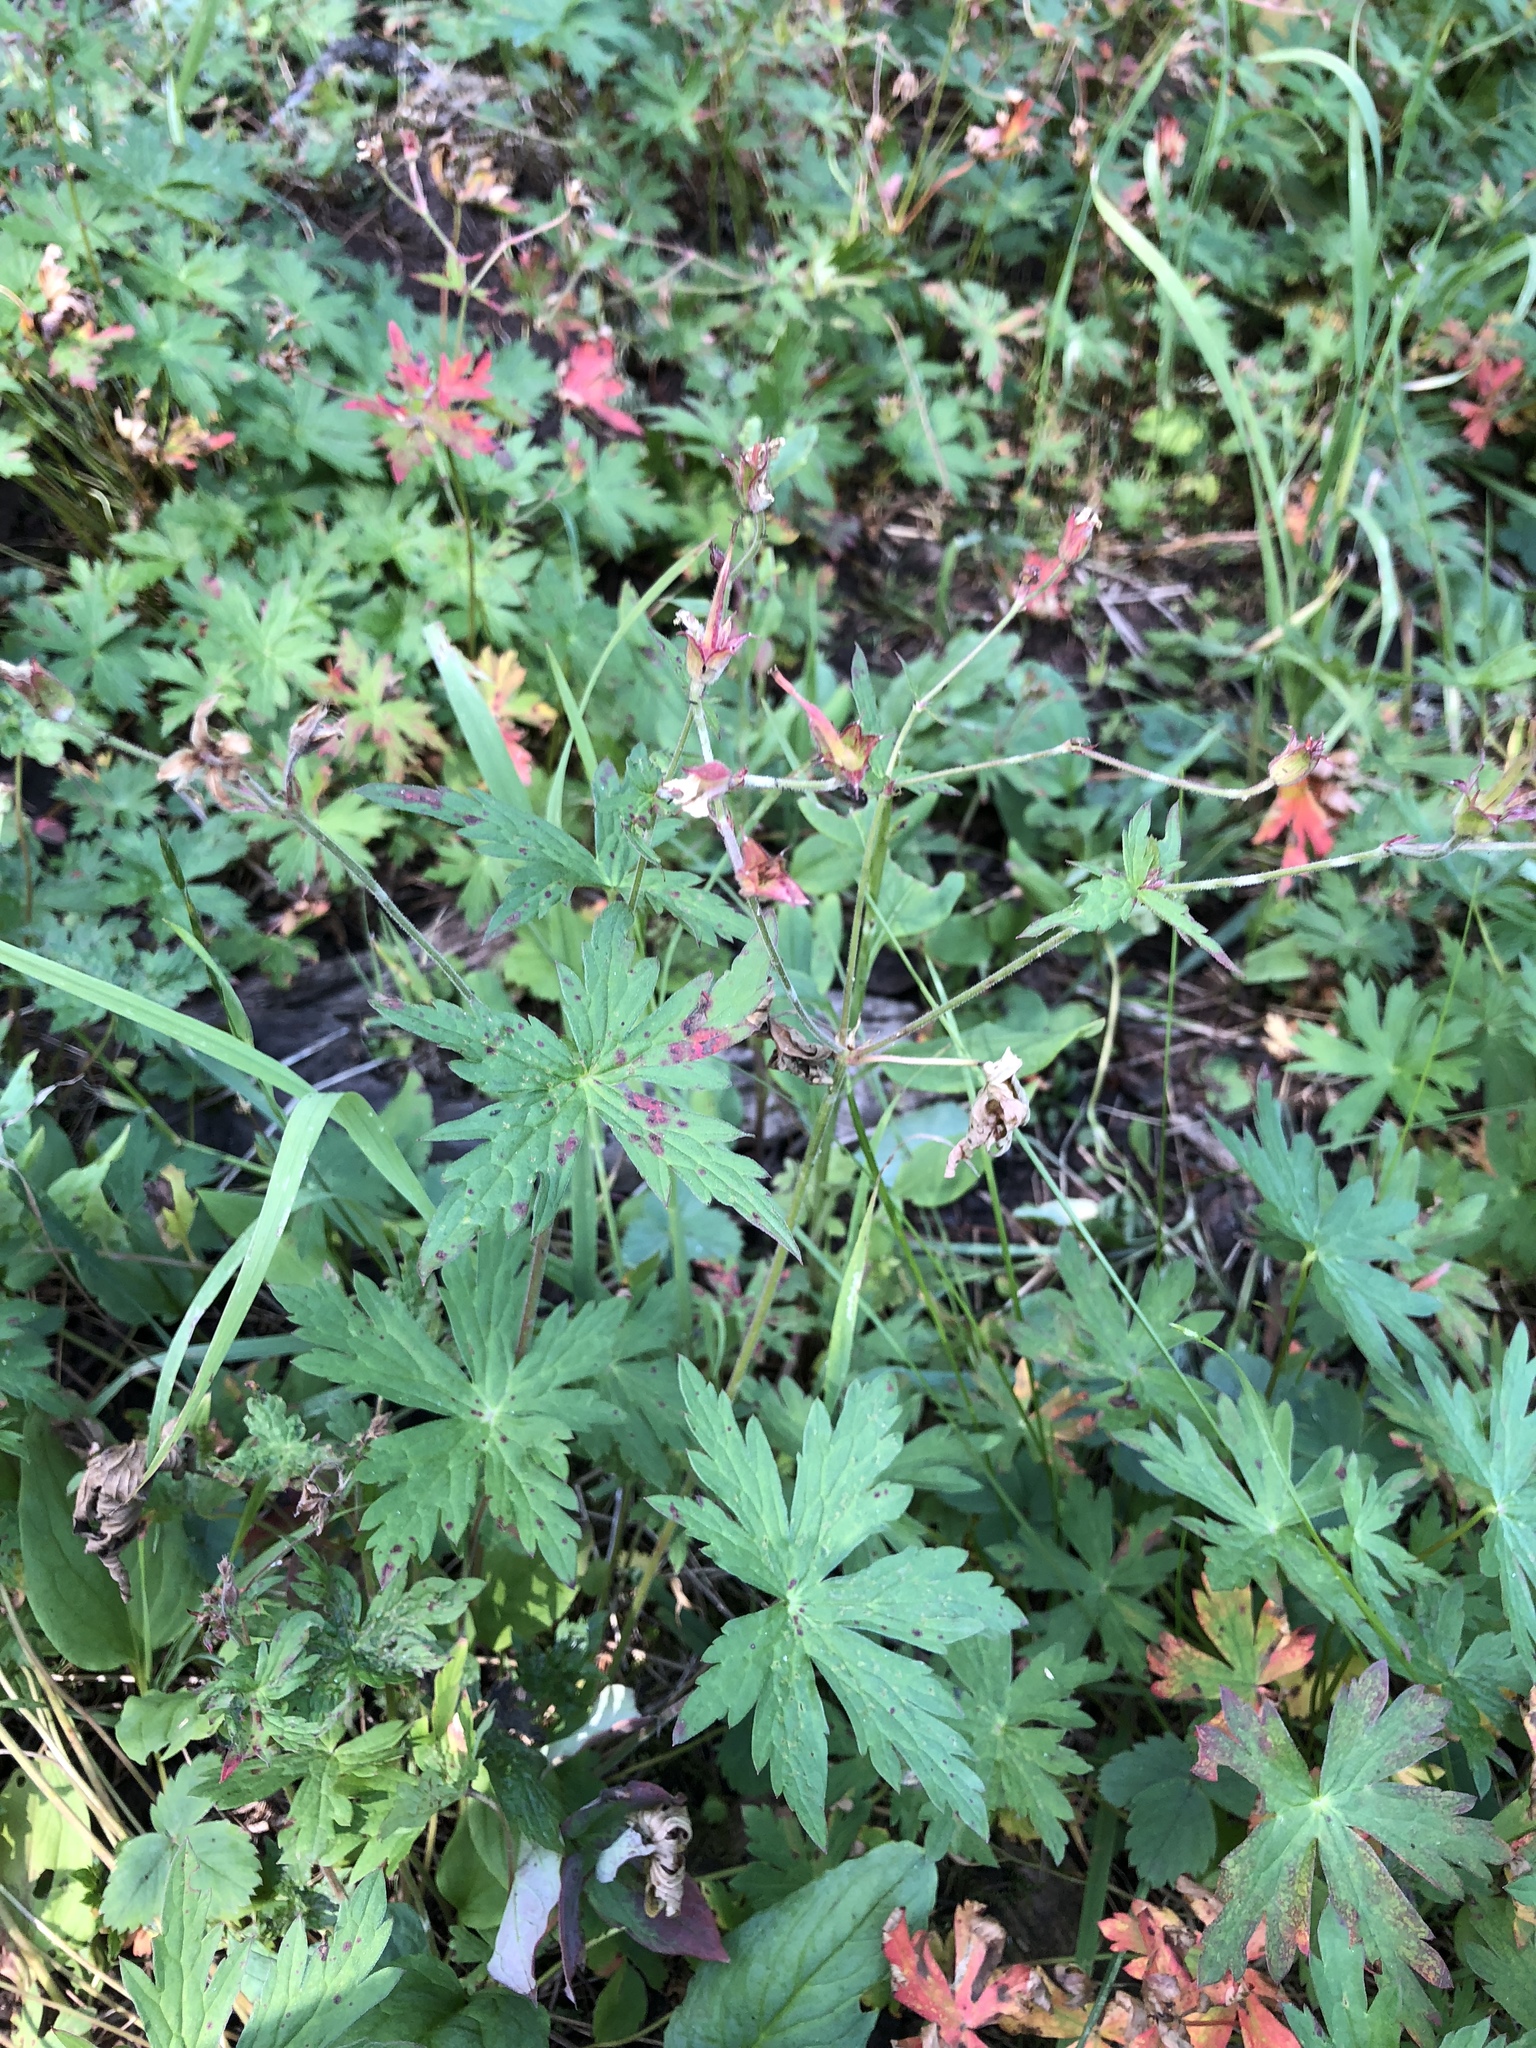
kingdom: Plantae
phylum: Tracheophyta
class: Magnoliopsida
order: Geraniales
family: Geraniaceae
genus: Geranium
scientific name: Geranium richardsonii
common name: Richardson's crane's-bill
